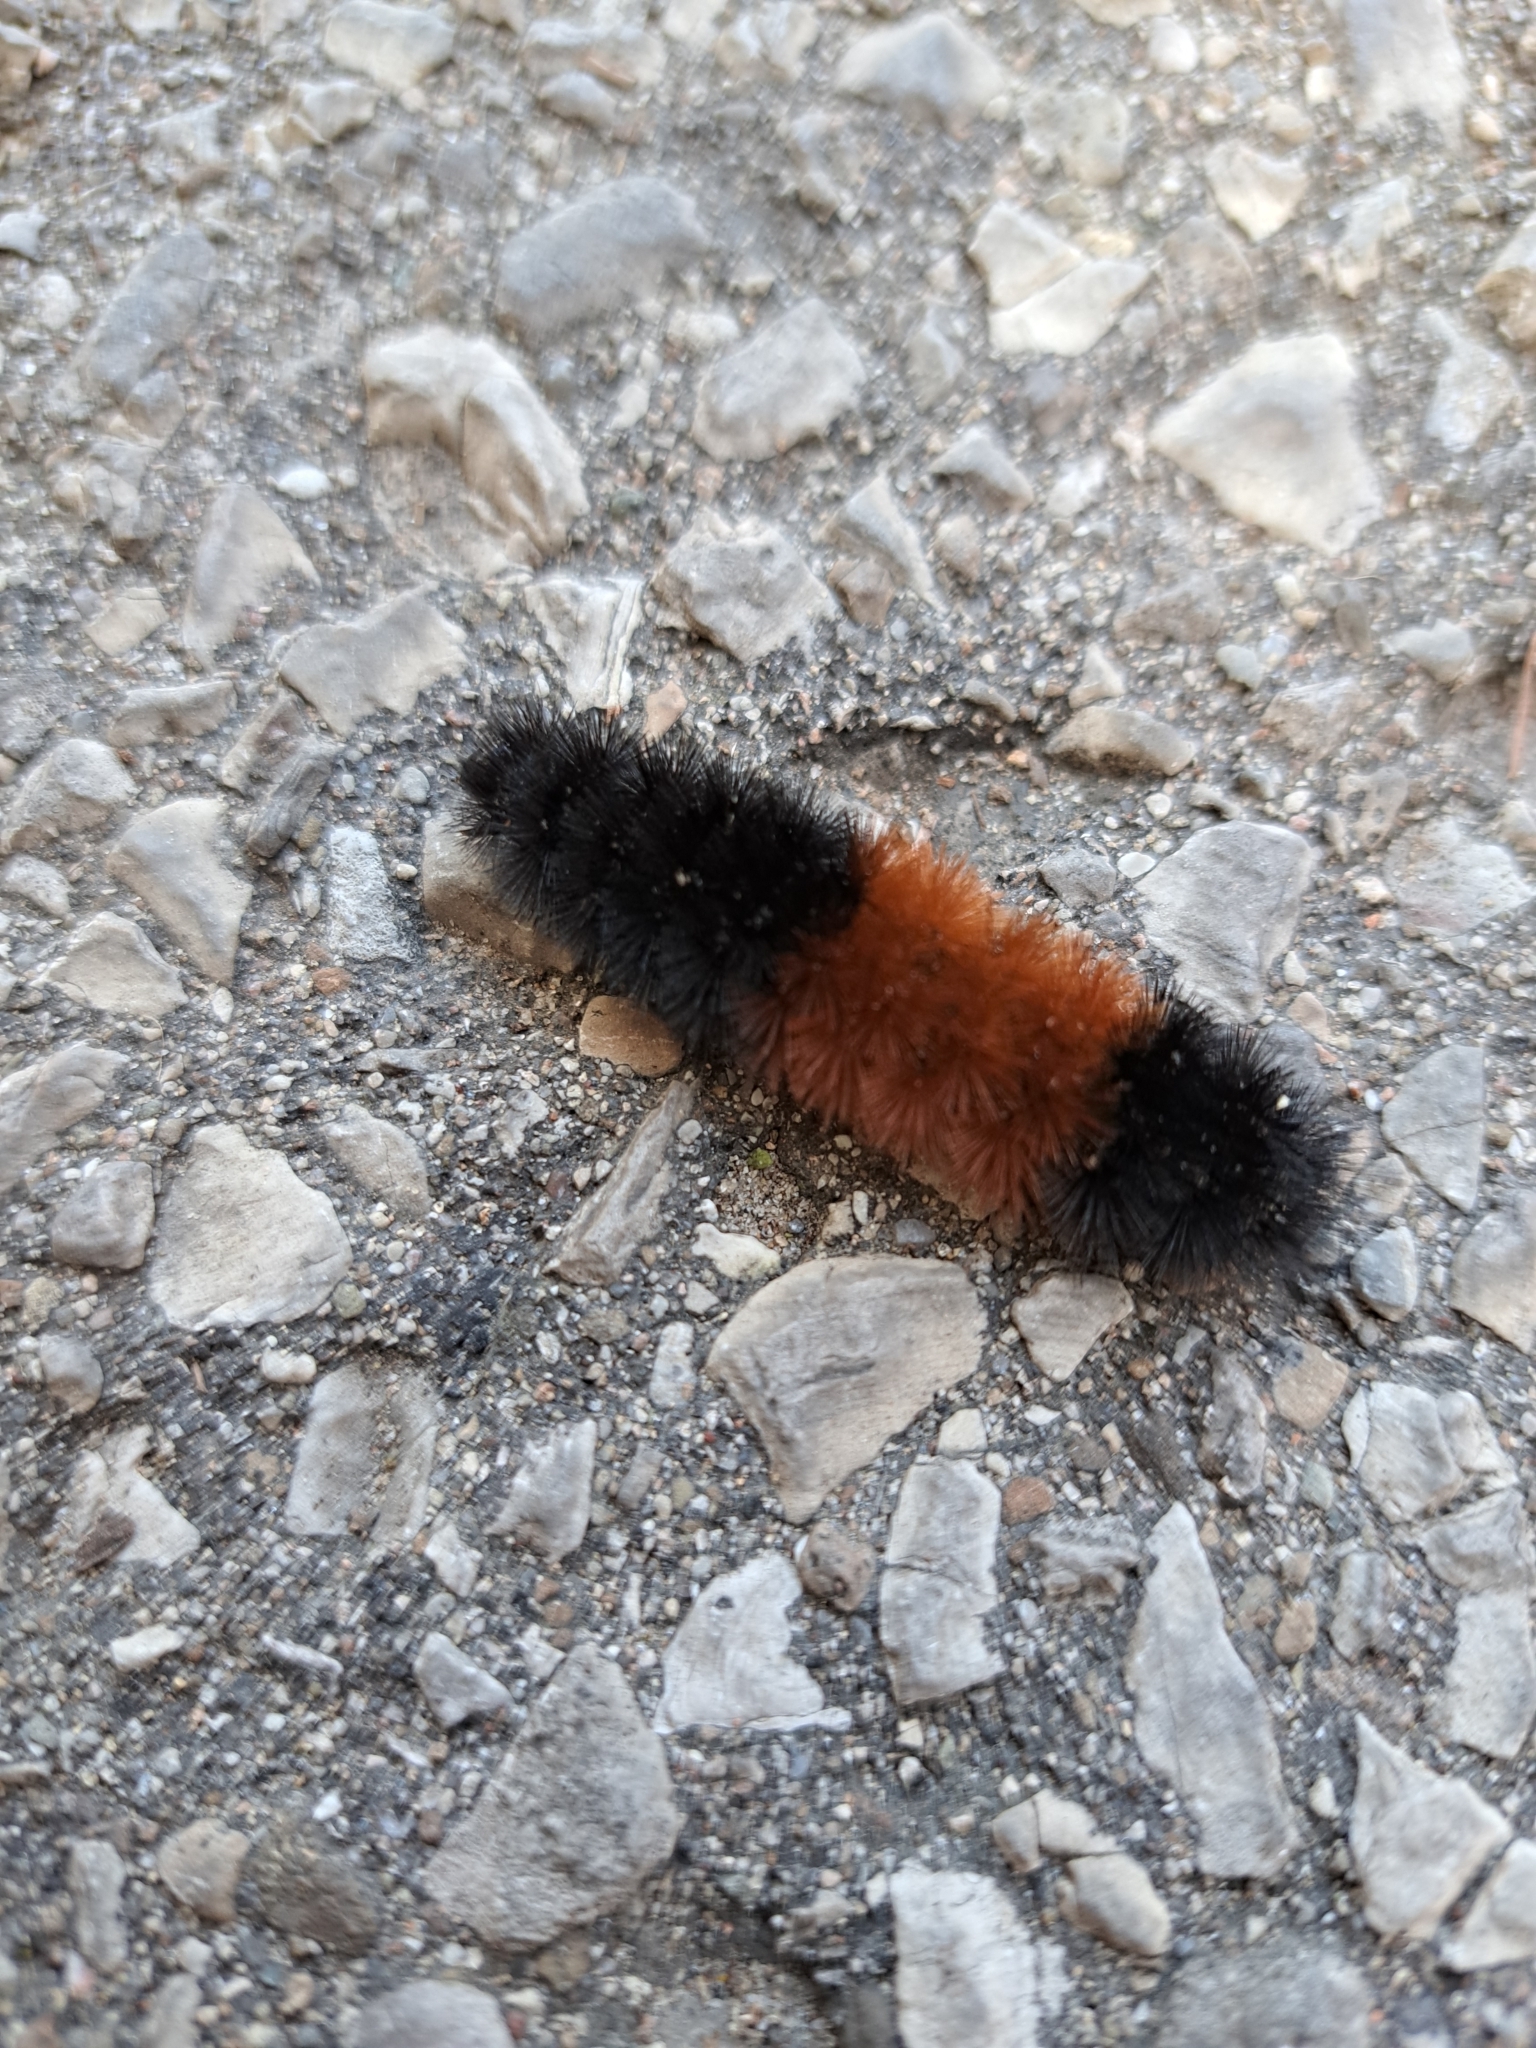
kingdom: Animalia
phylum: Arthropoda
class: Insecta
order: Lepidoptera
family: Erebidae
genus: Pyrrharctia
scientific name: Pyrrharctia isabella
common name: Isabella tiger moth
